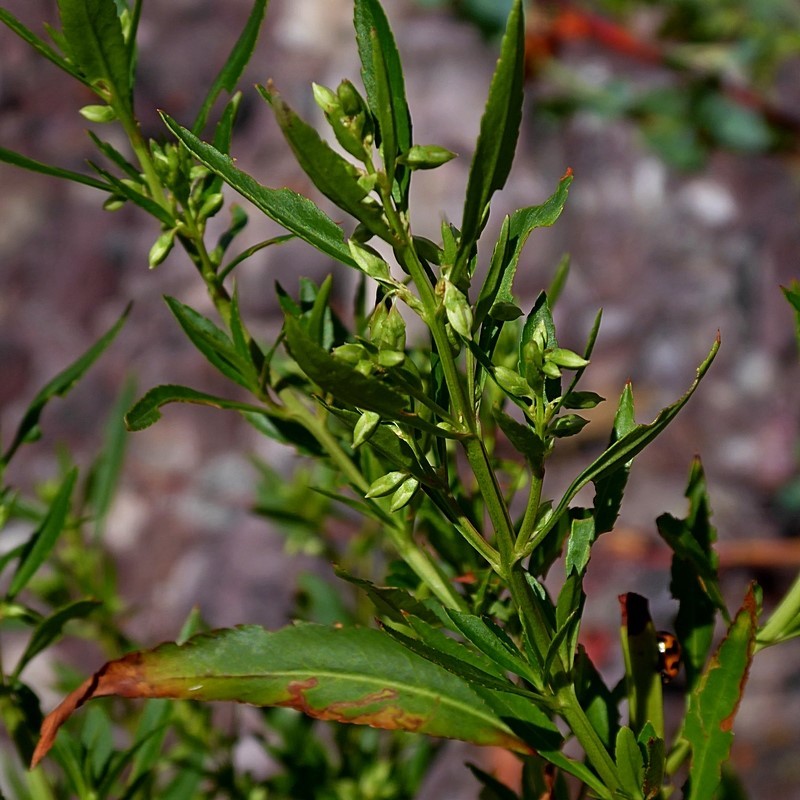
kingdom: Plantae
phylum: Tracheophyta
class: Magnoliopsida
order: Saxifragales
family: Haloragaceae
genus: Glischrocaryon
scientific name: Glischrocaryon baeuerlenii
